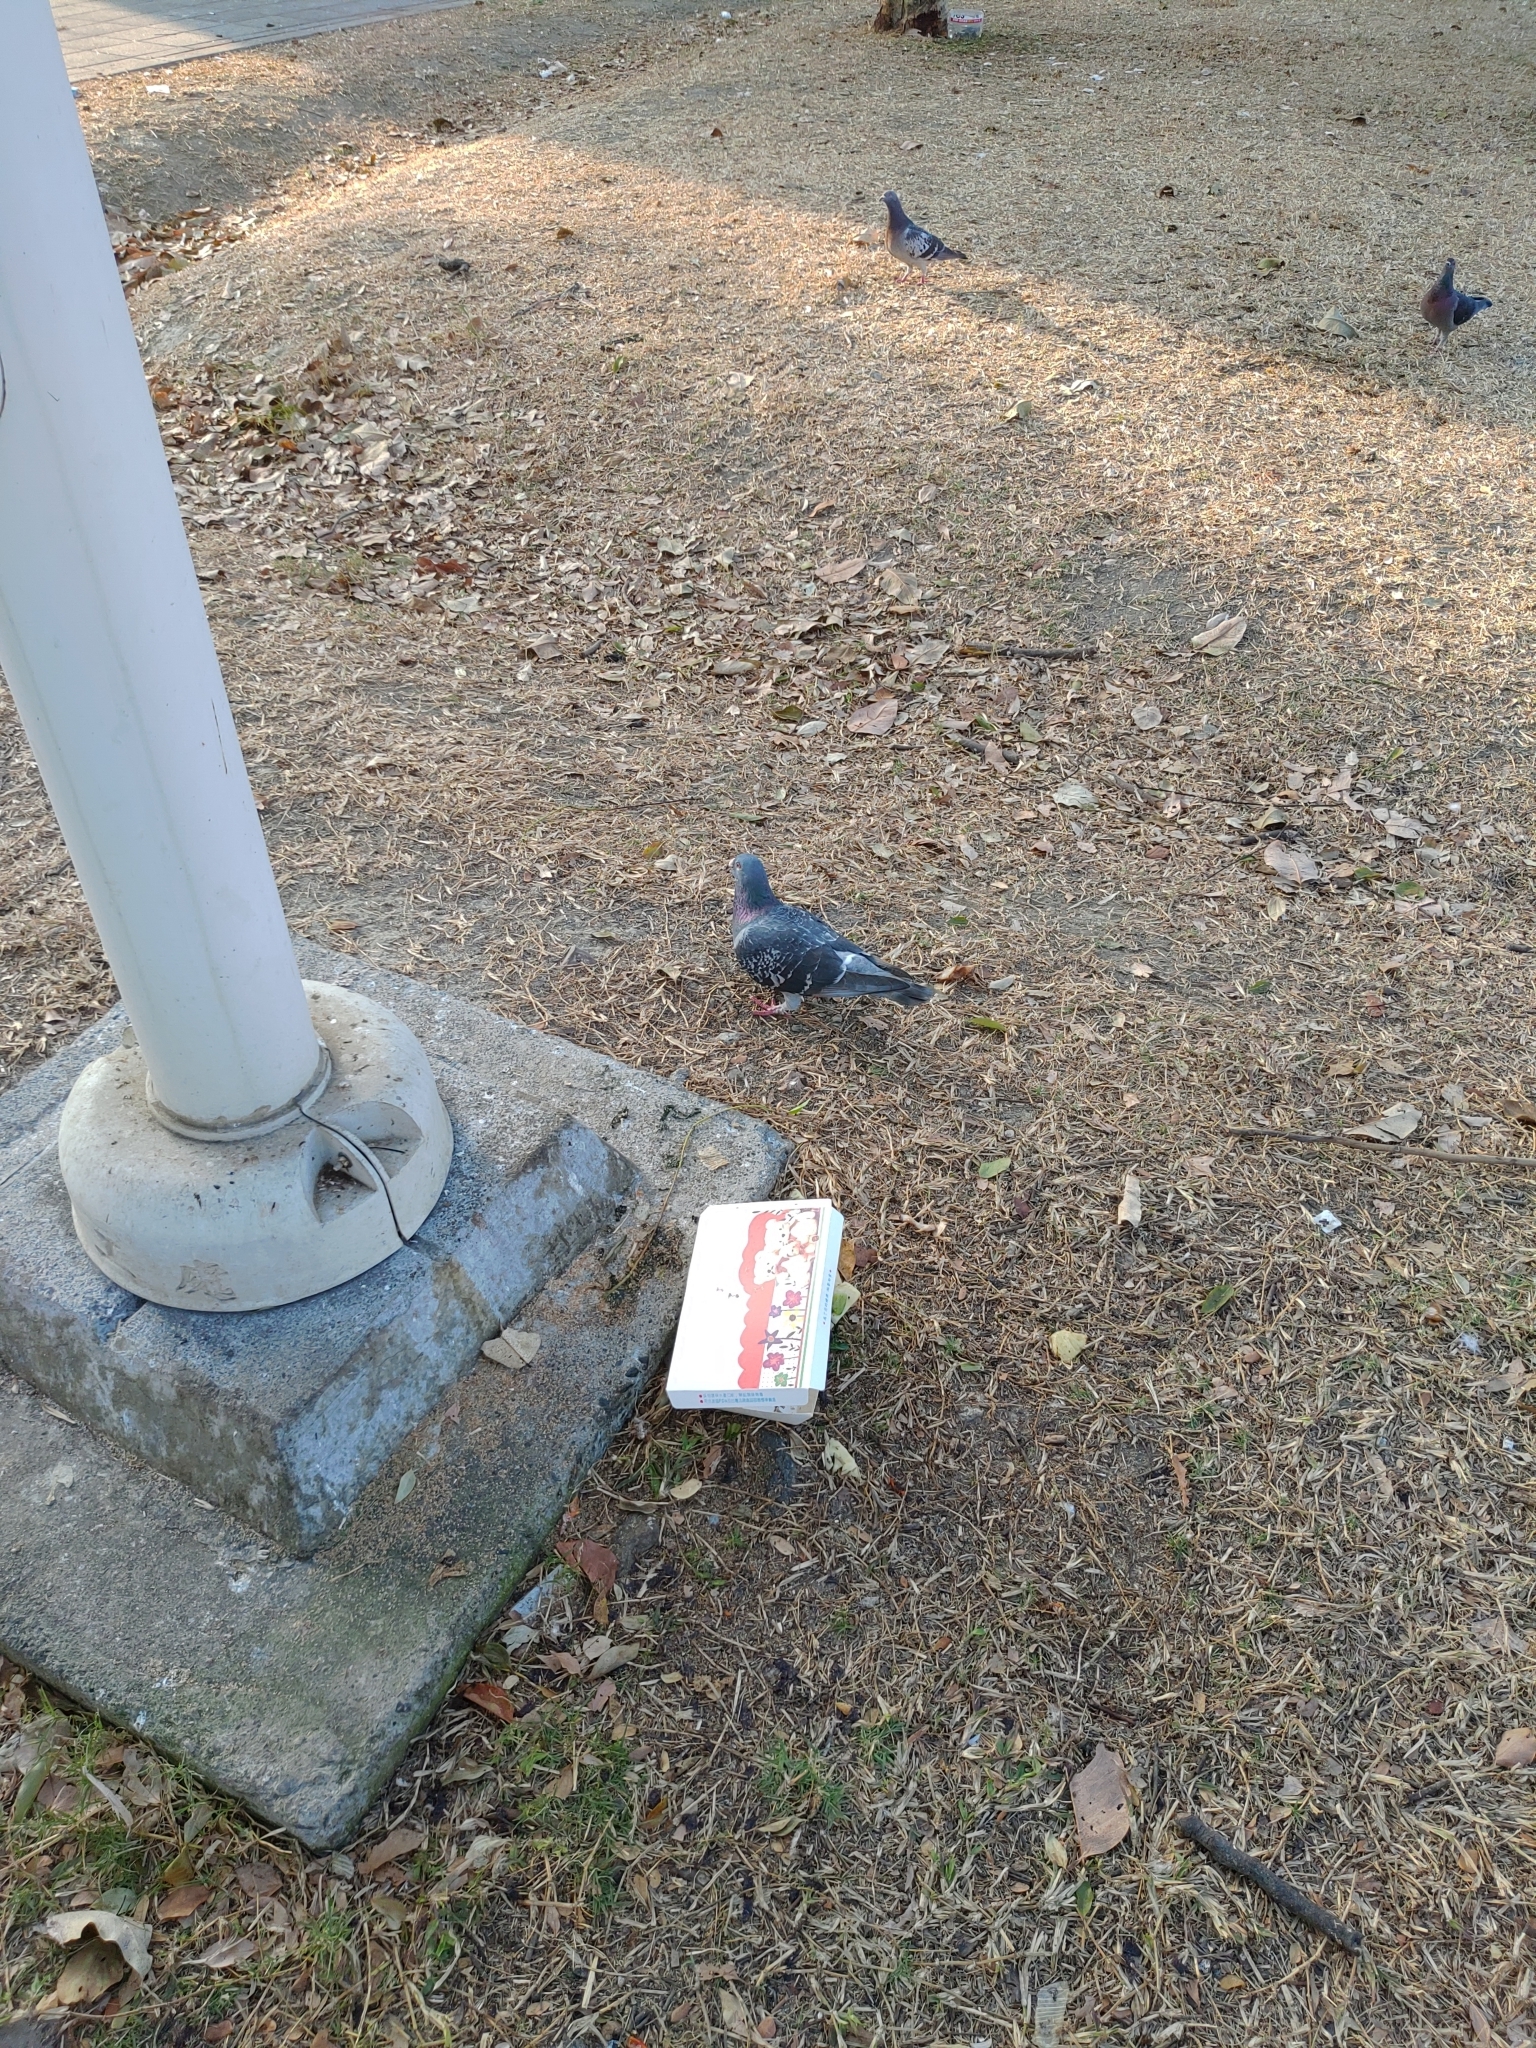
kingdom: Animalia
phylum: Chordata
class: Aves
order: Columbiformes
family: Columbidae
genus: Columba
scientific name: Columba livia
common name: Rock pigeon
